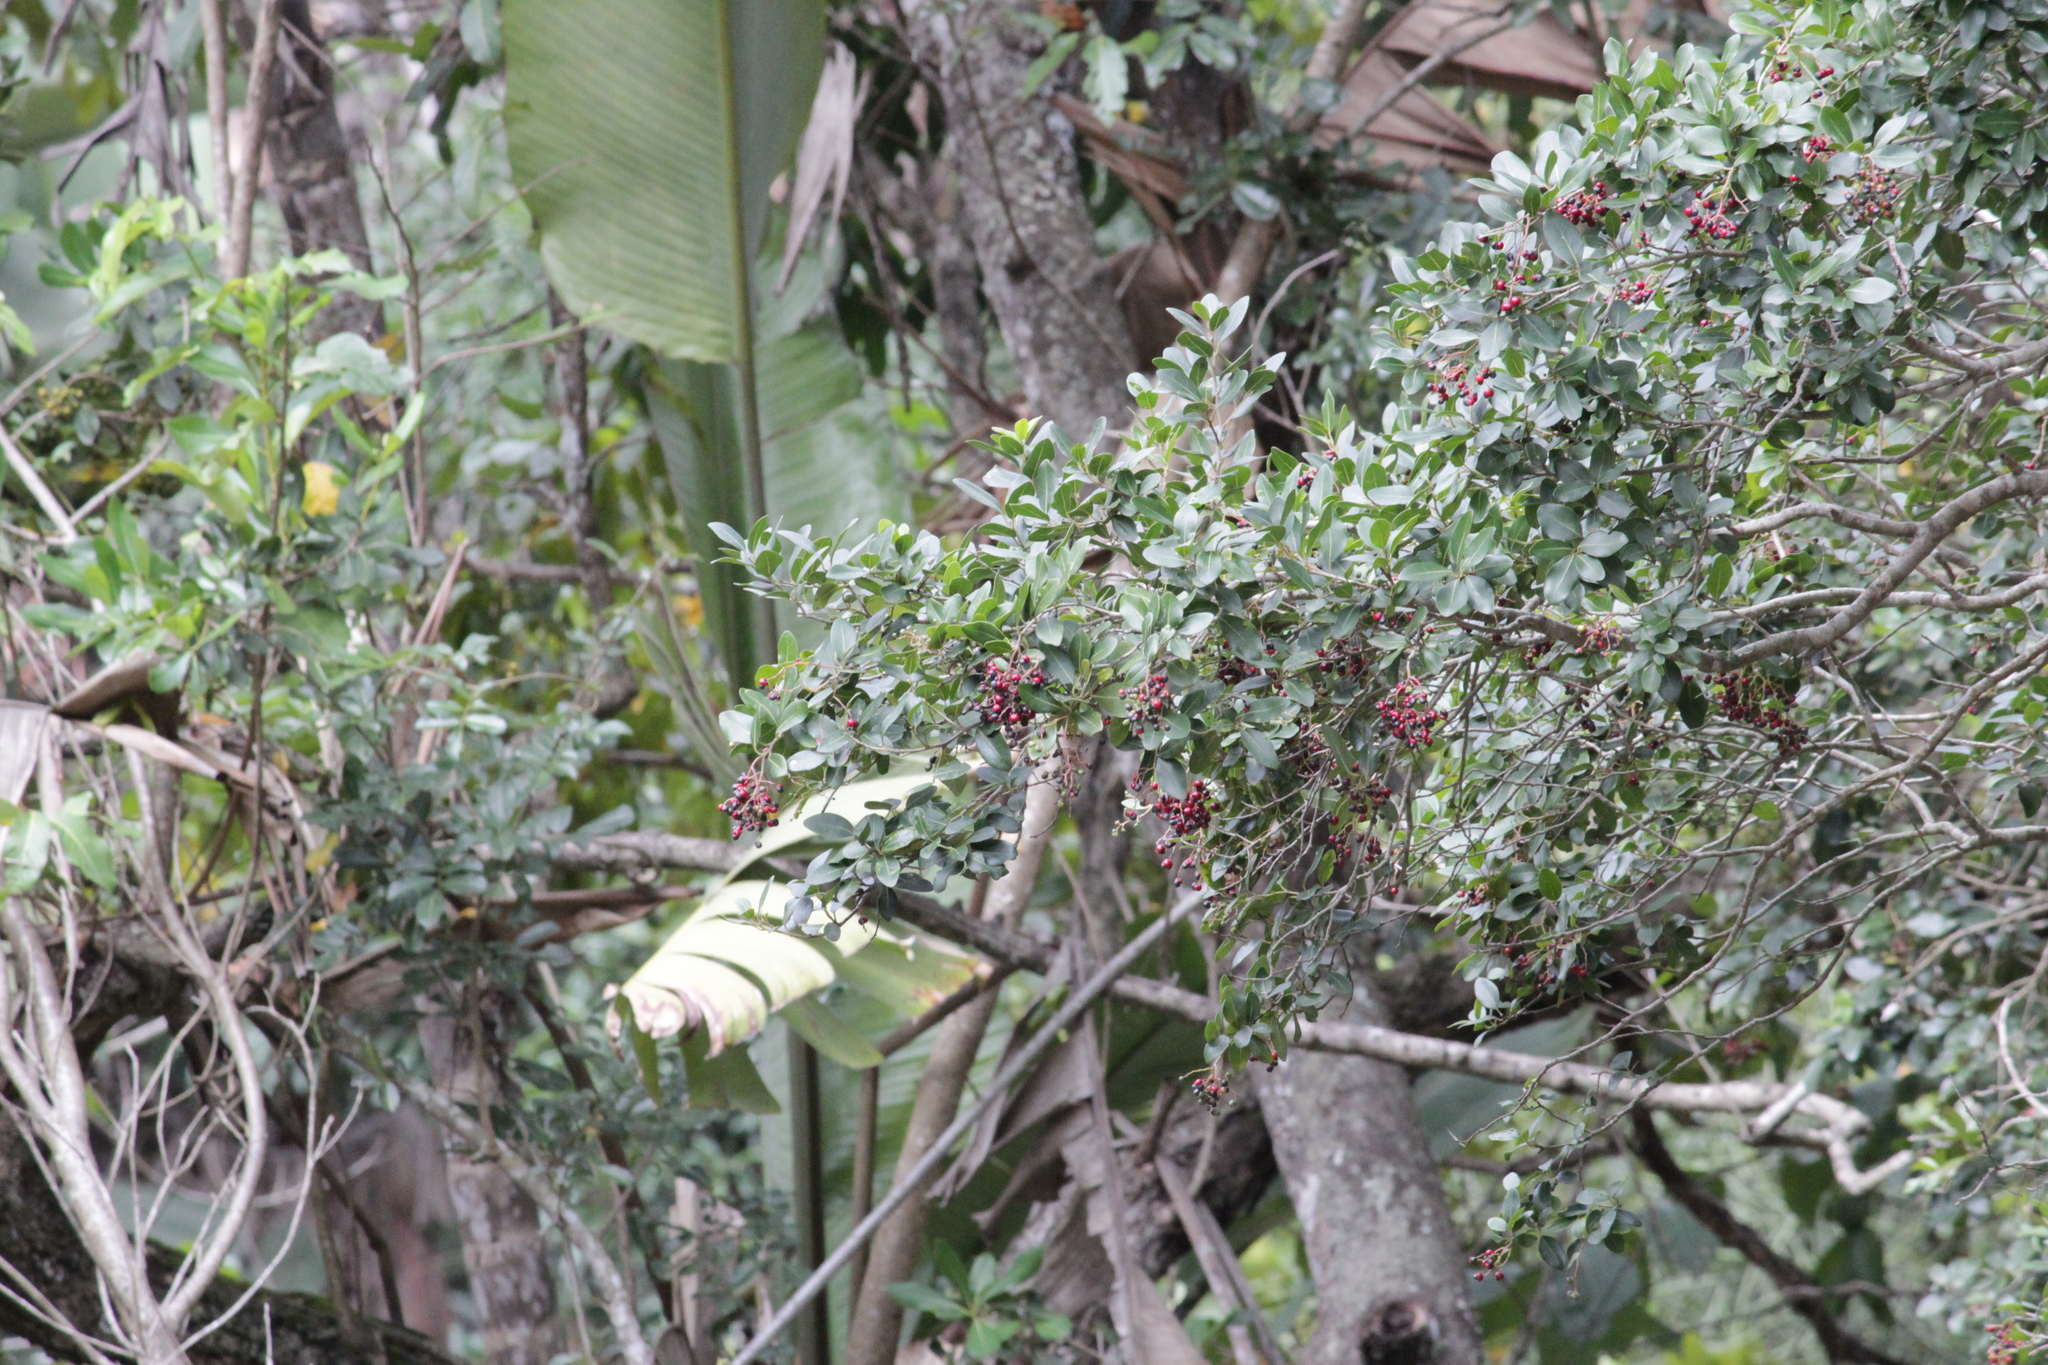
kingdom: Plantae
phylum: Tracheophyta
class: Magnoliopsida
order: Metteniusales
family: Metteniusaceae
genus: Apodytes
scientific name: Apodytes dimidiata
